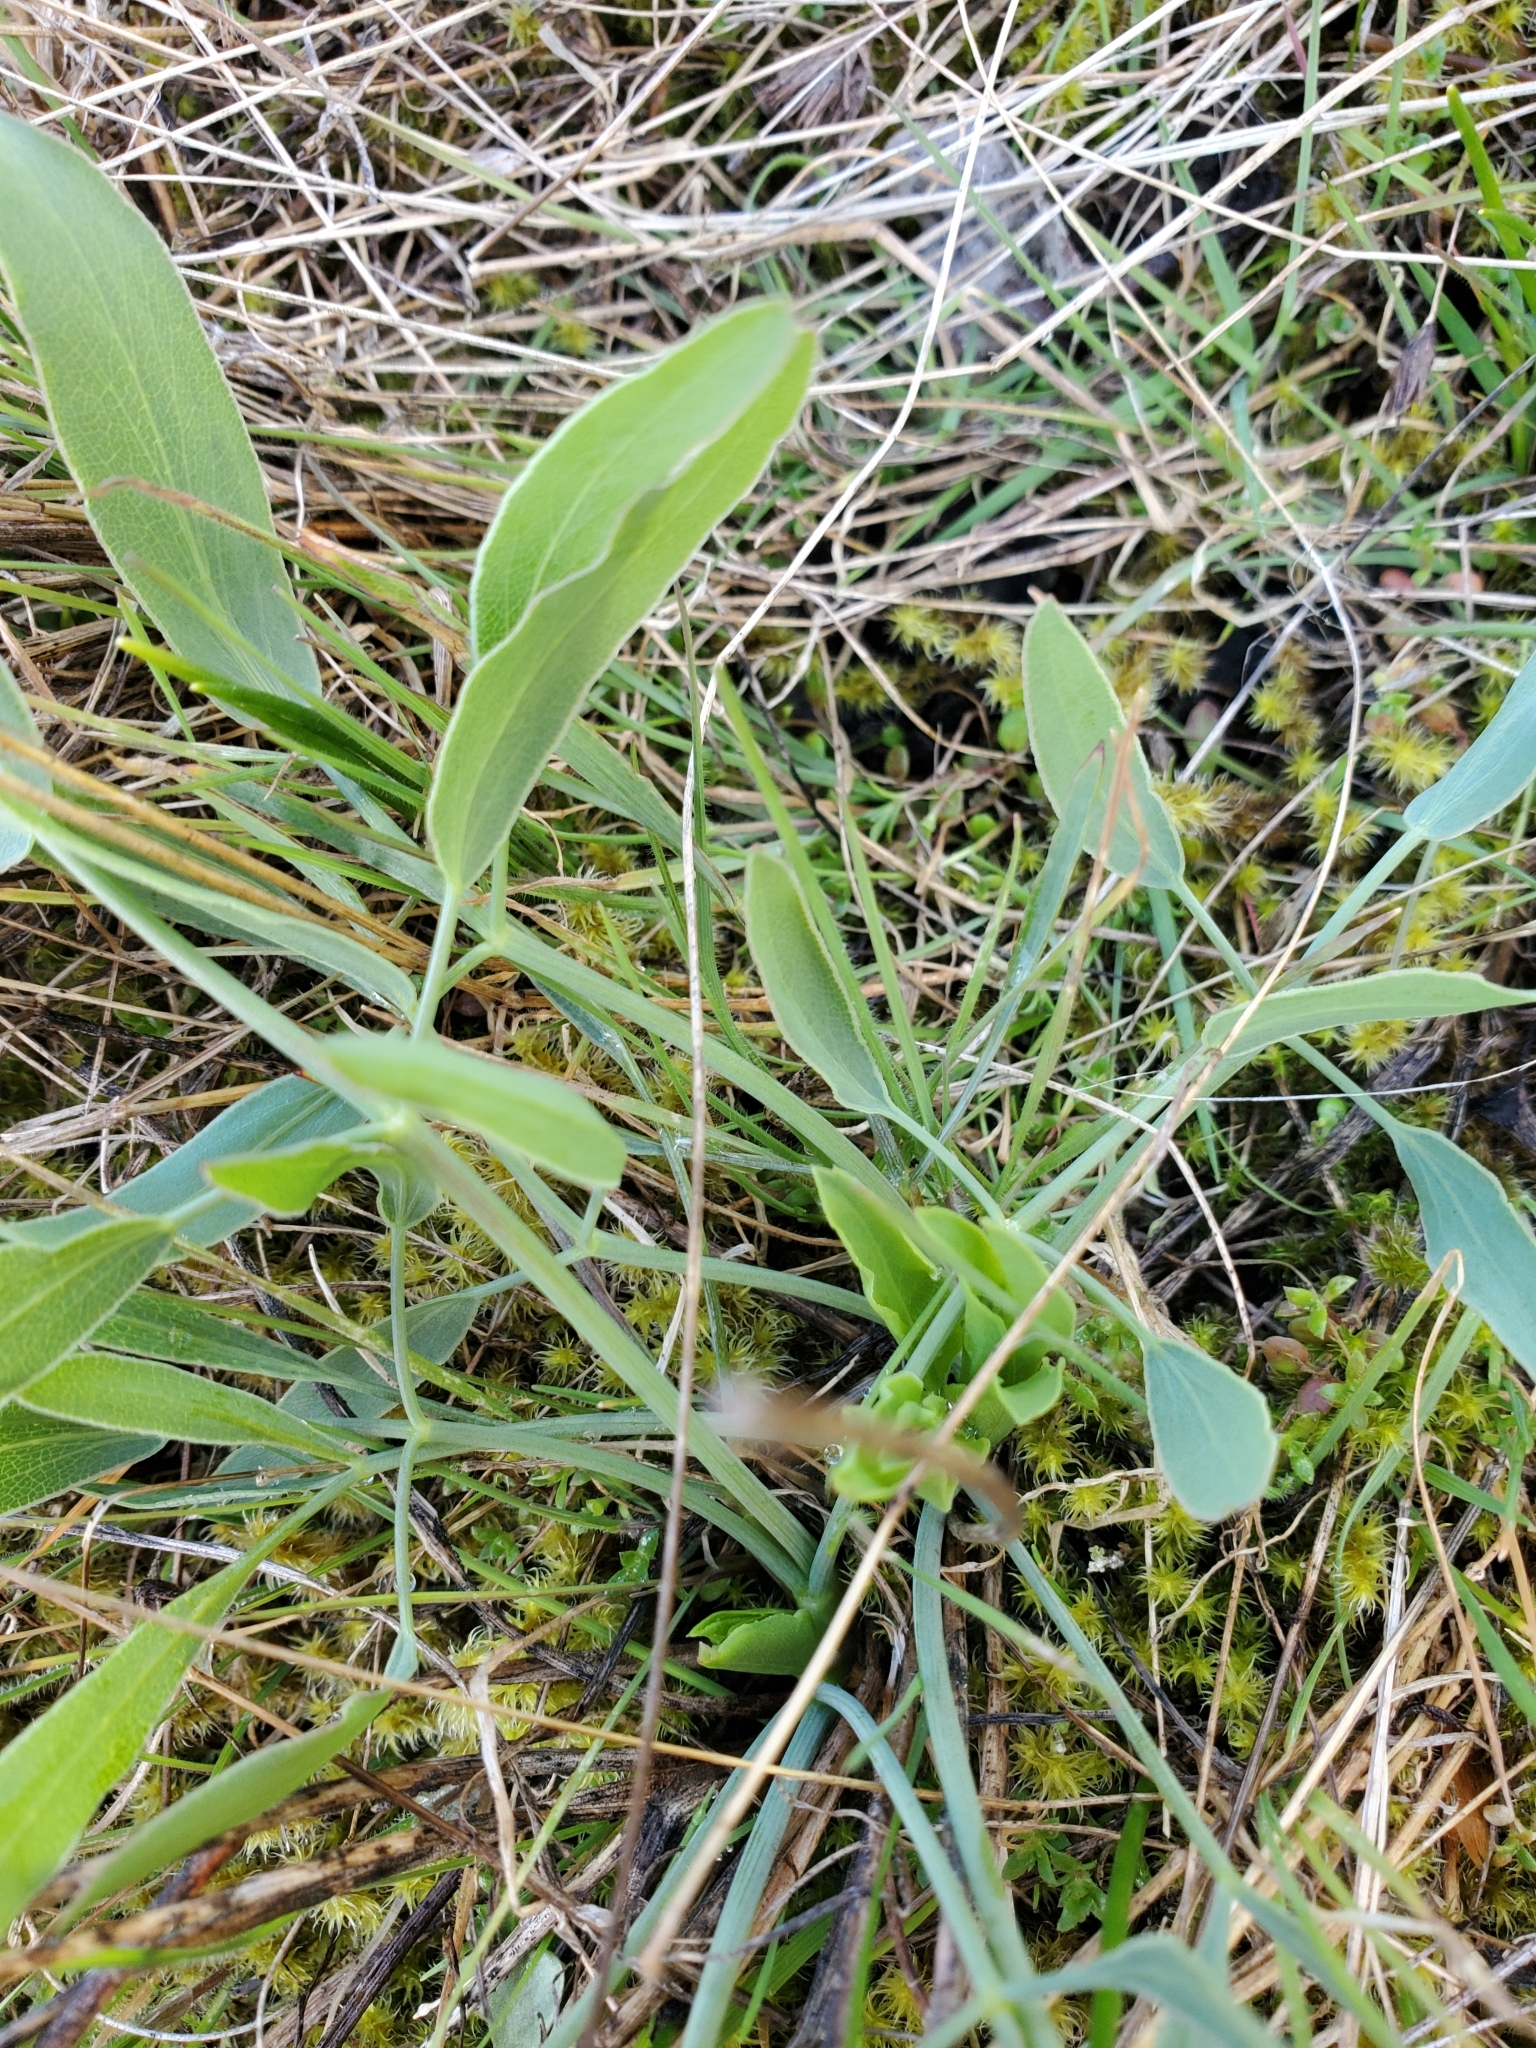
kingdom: Plantae
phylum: Tracheophyta
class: Magnoliopsida
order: Apiales
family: Apiaceae
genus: Lomatium
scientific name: Lomatium nudicaule
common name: Pestle lomatium
